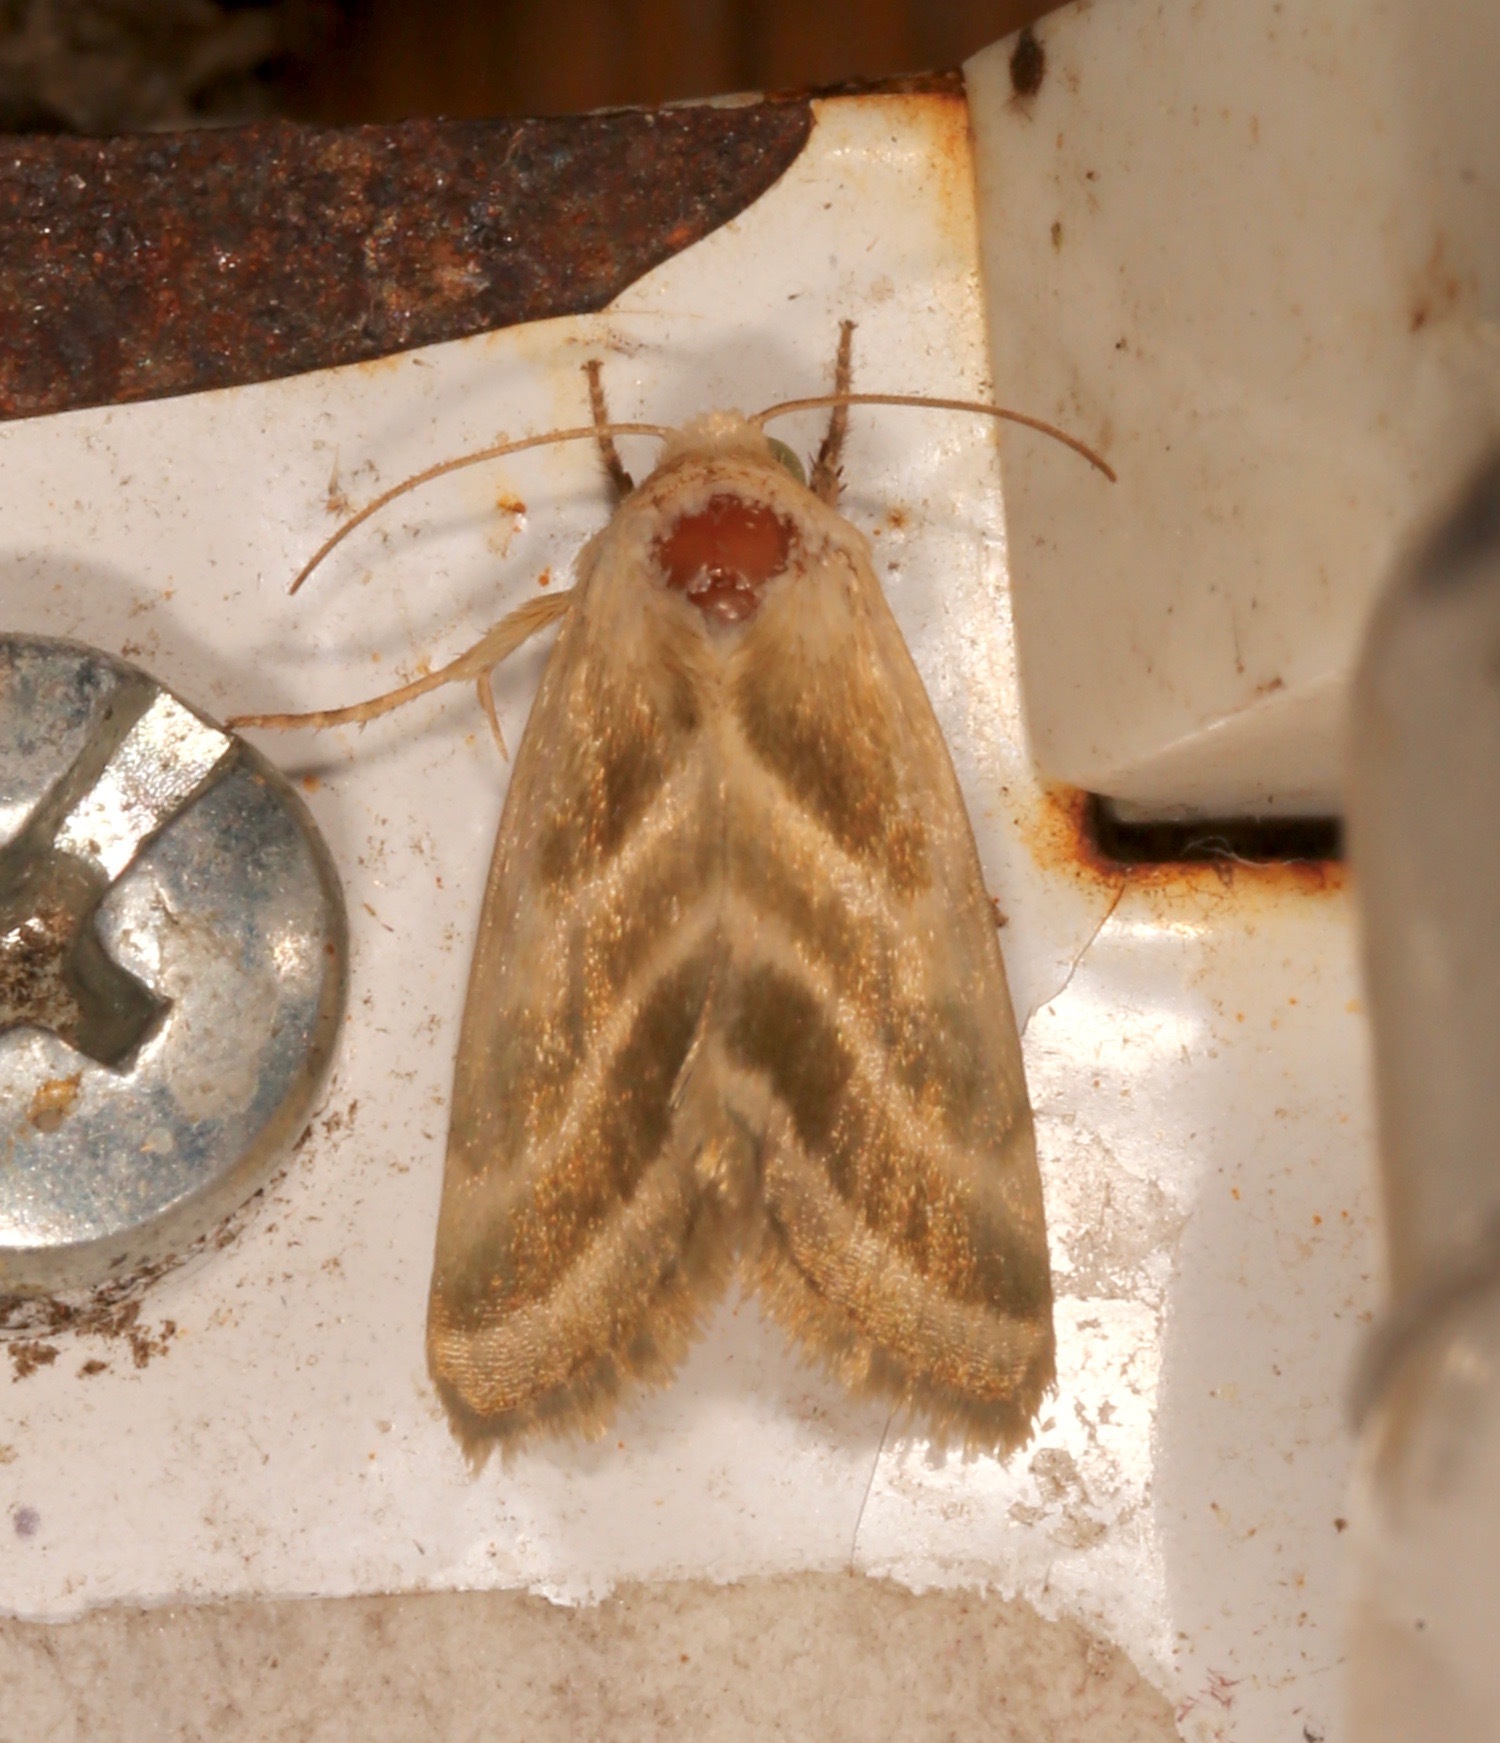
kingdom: Animalia
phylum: Arthropoda
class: Insecta
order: Lepidoptera
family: Noctuidae
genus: Schinia
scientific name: Schinia trifascia
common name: Three-lined flower moth
